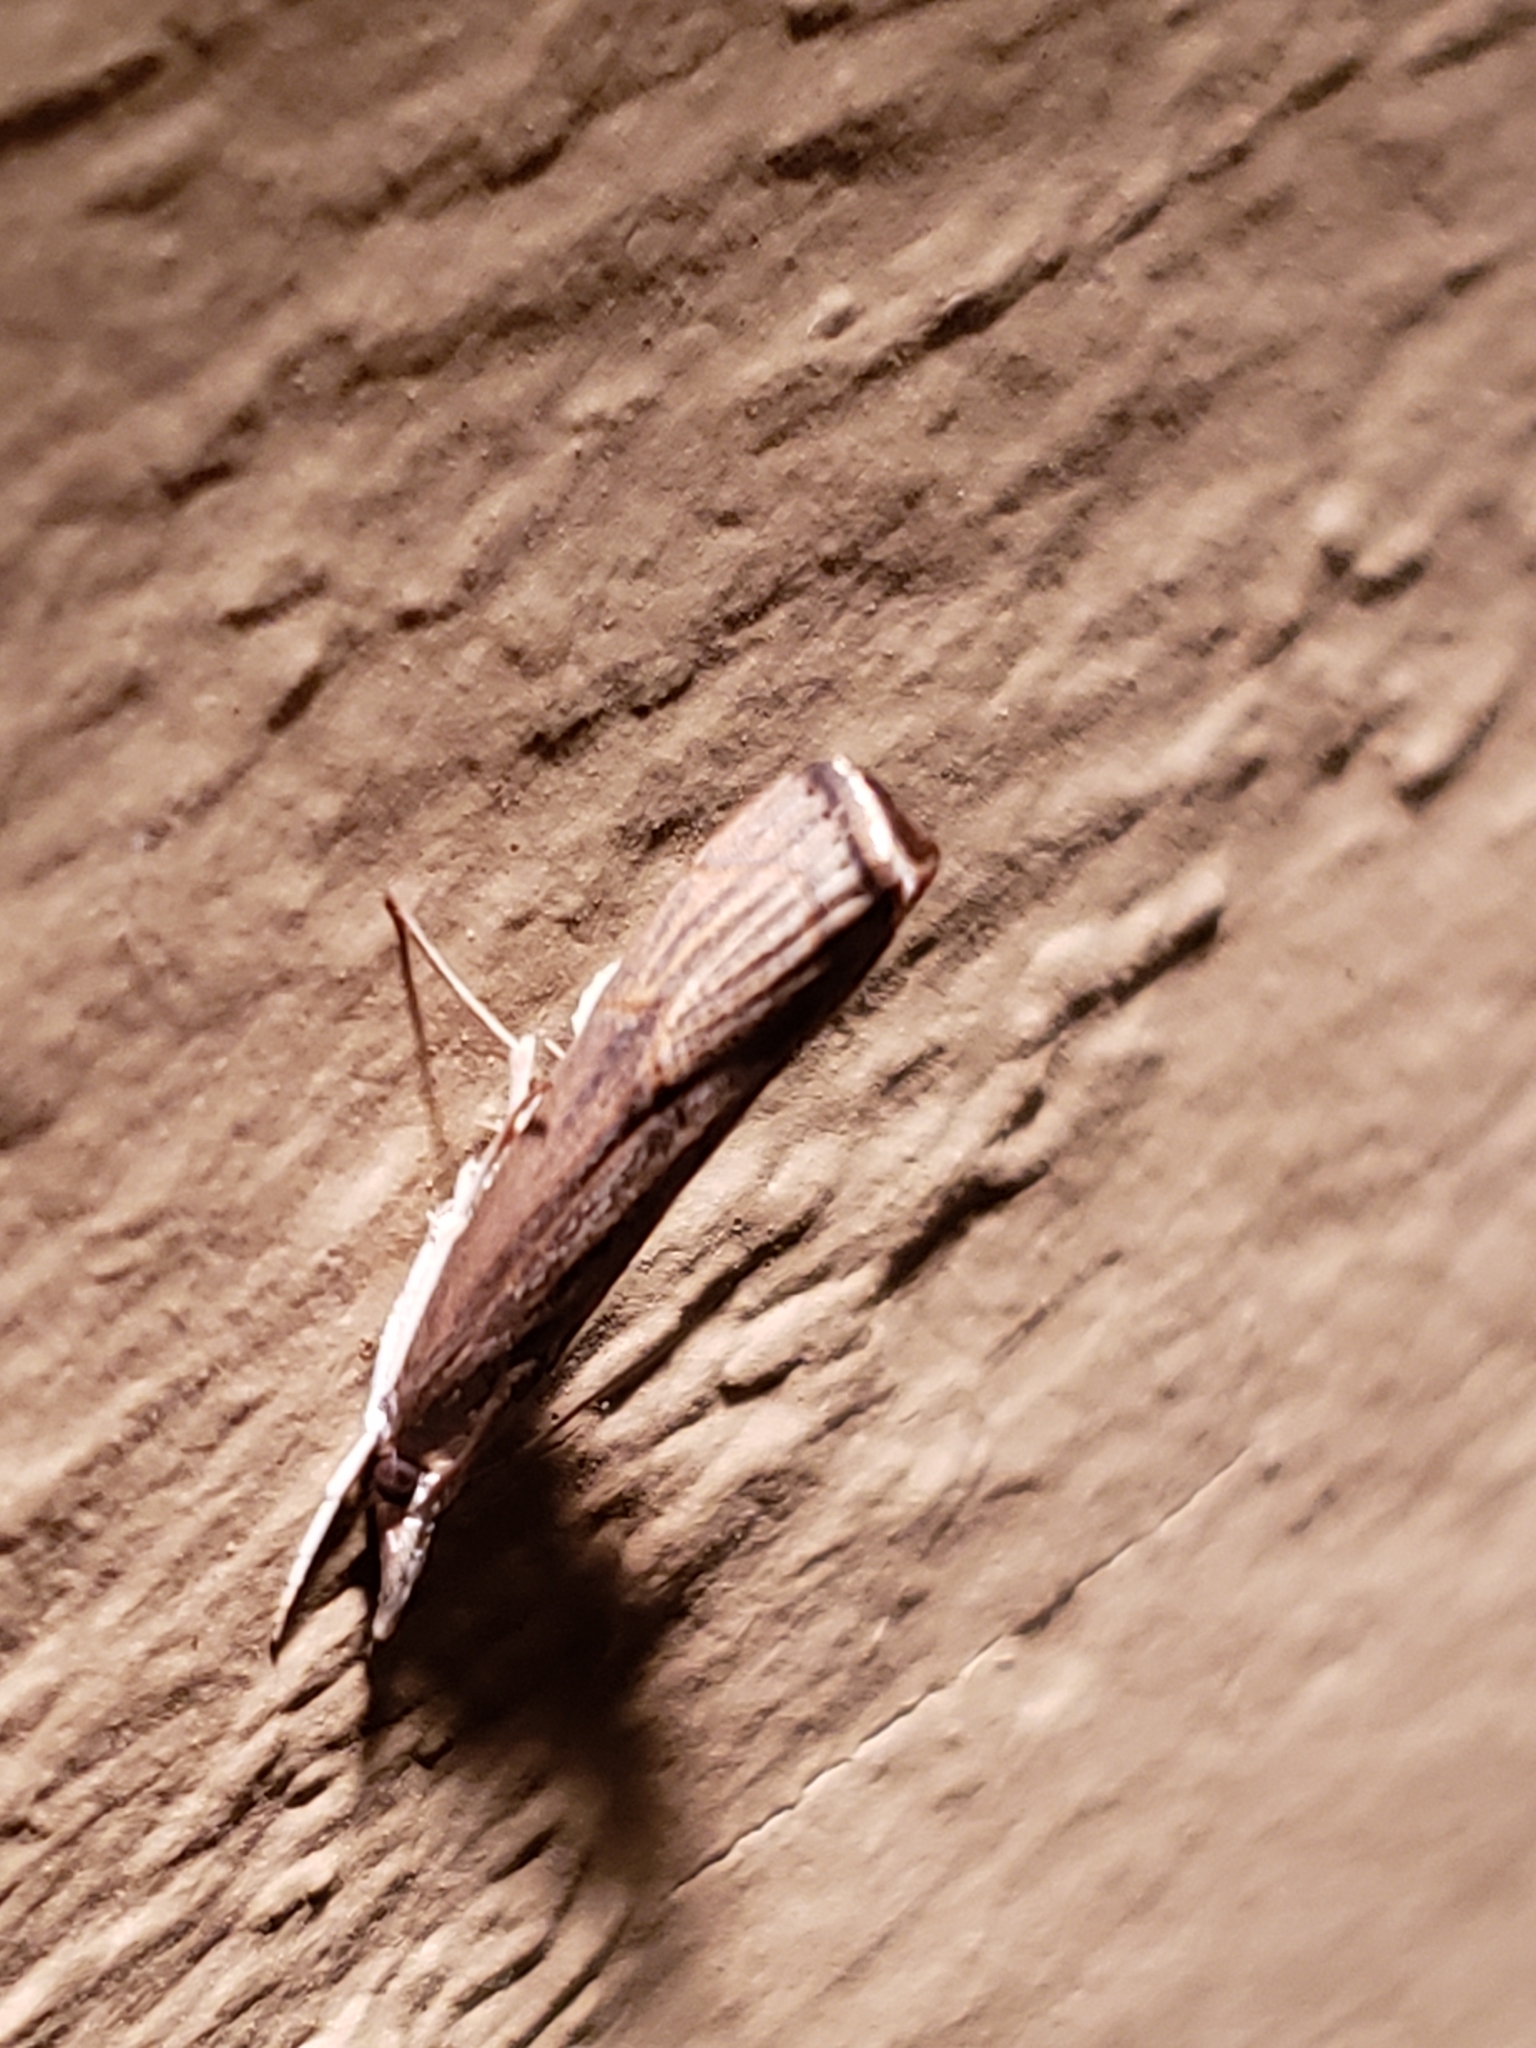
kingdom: Animalia
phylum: Arthropoda
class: Insecta
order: Lepidoptera
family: Crambidae
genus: Parapediasia
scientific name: Parapediasia teterellus
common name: Bluegrass webworm moth
